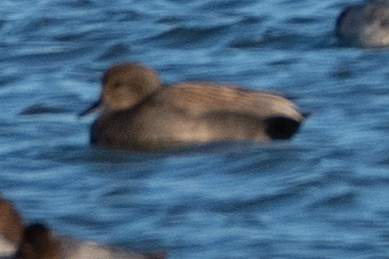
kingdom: Animalia
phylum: Chordata
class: Aves
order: Anseriformes
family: Anatidae
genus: Mareca
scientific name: Mareca strepera
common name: Gadwall
